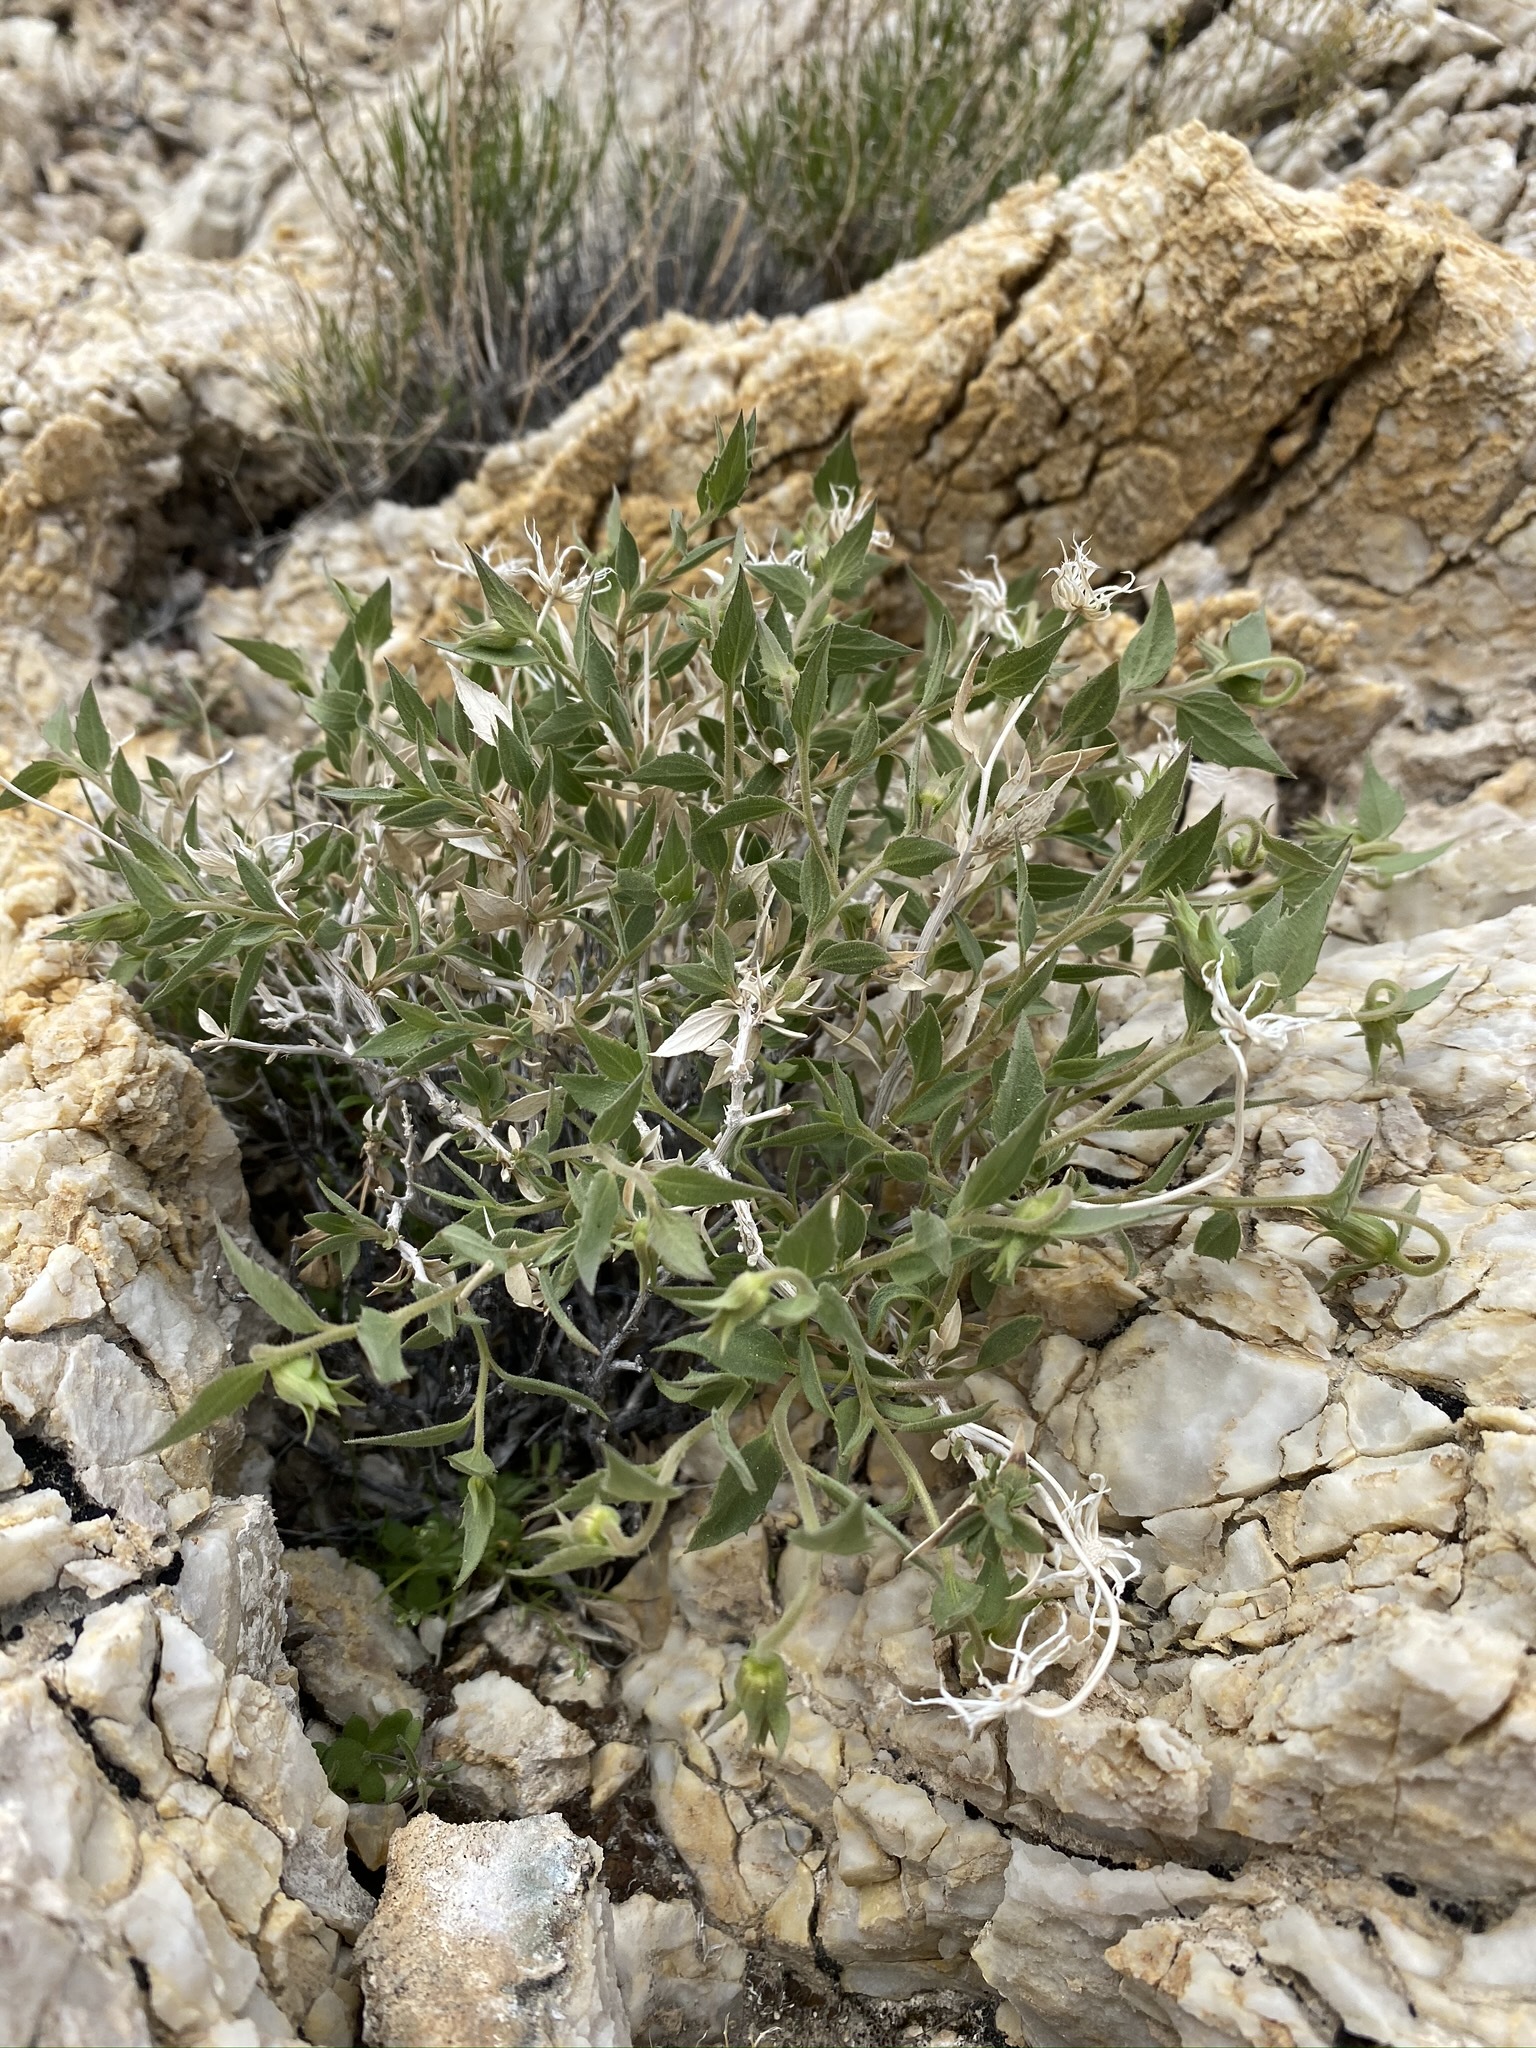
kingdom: Plantae
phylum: Tracheophyta
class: Magnoliopsida
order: Asterales
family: Asteraceae
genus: Brickellia
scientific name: Brickellia atractyloides
